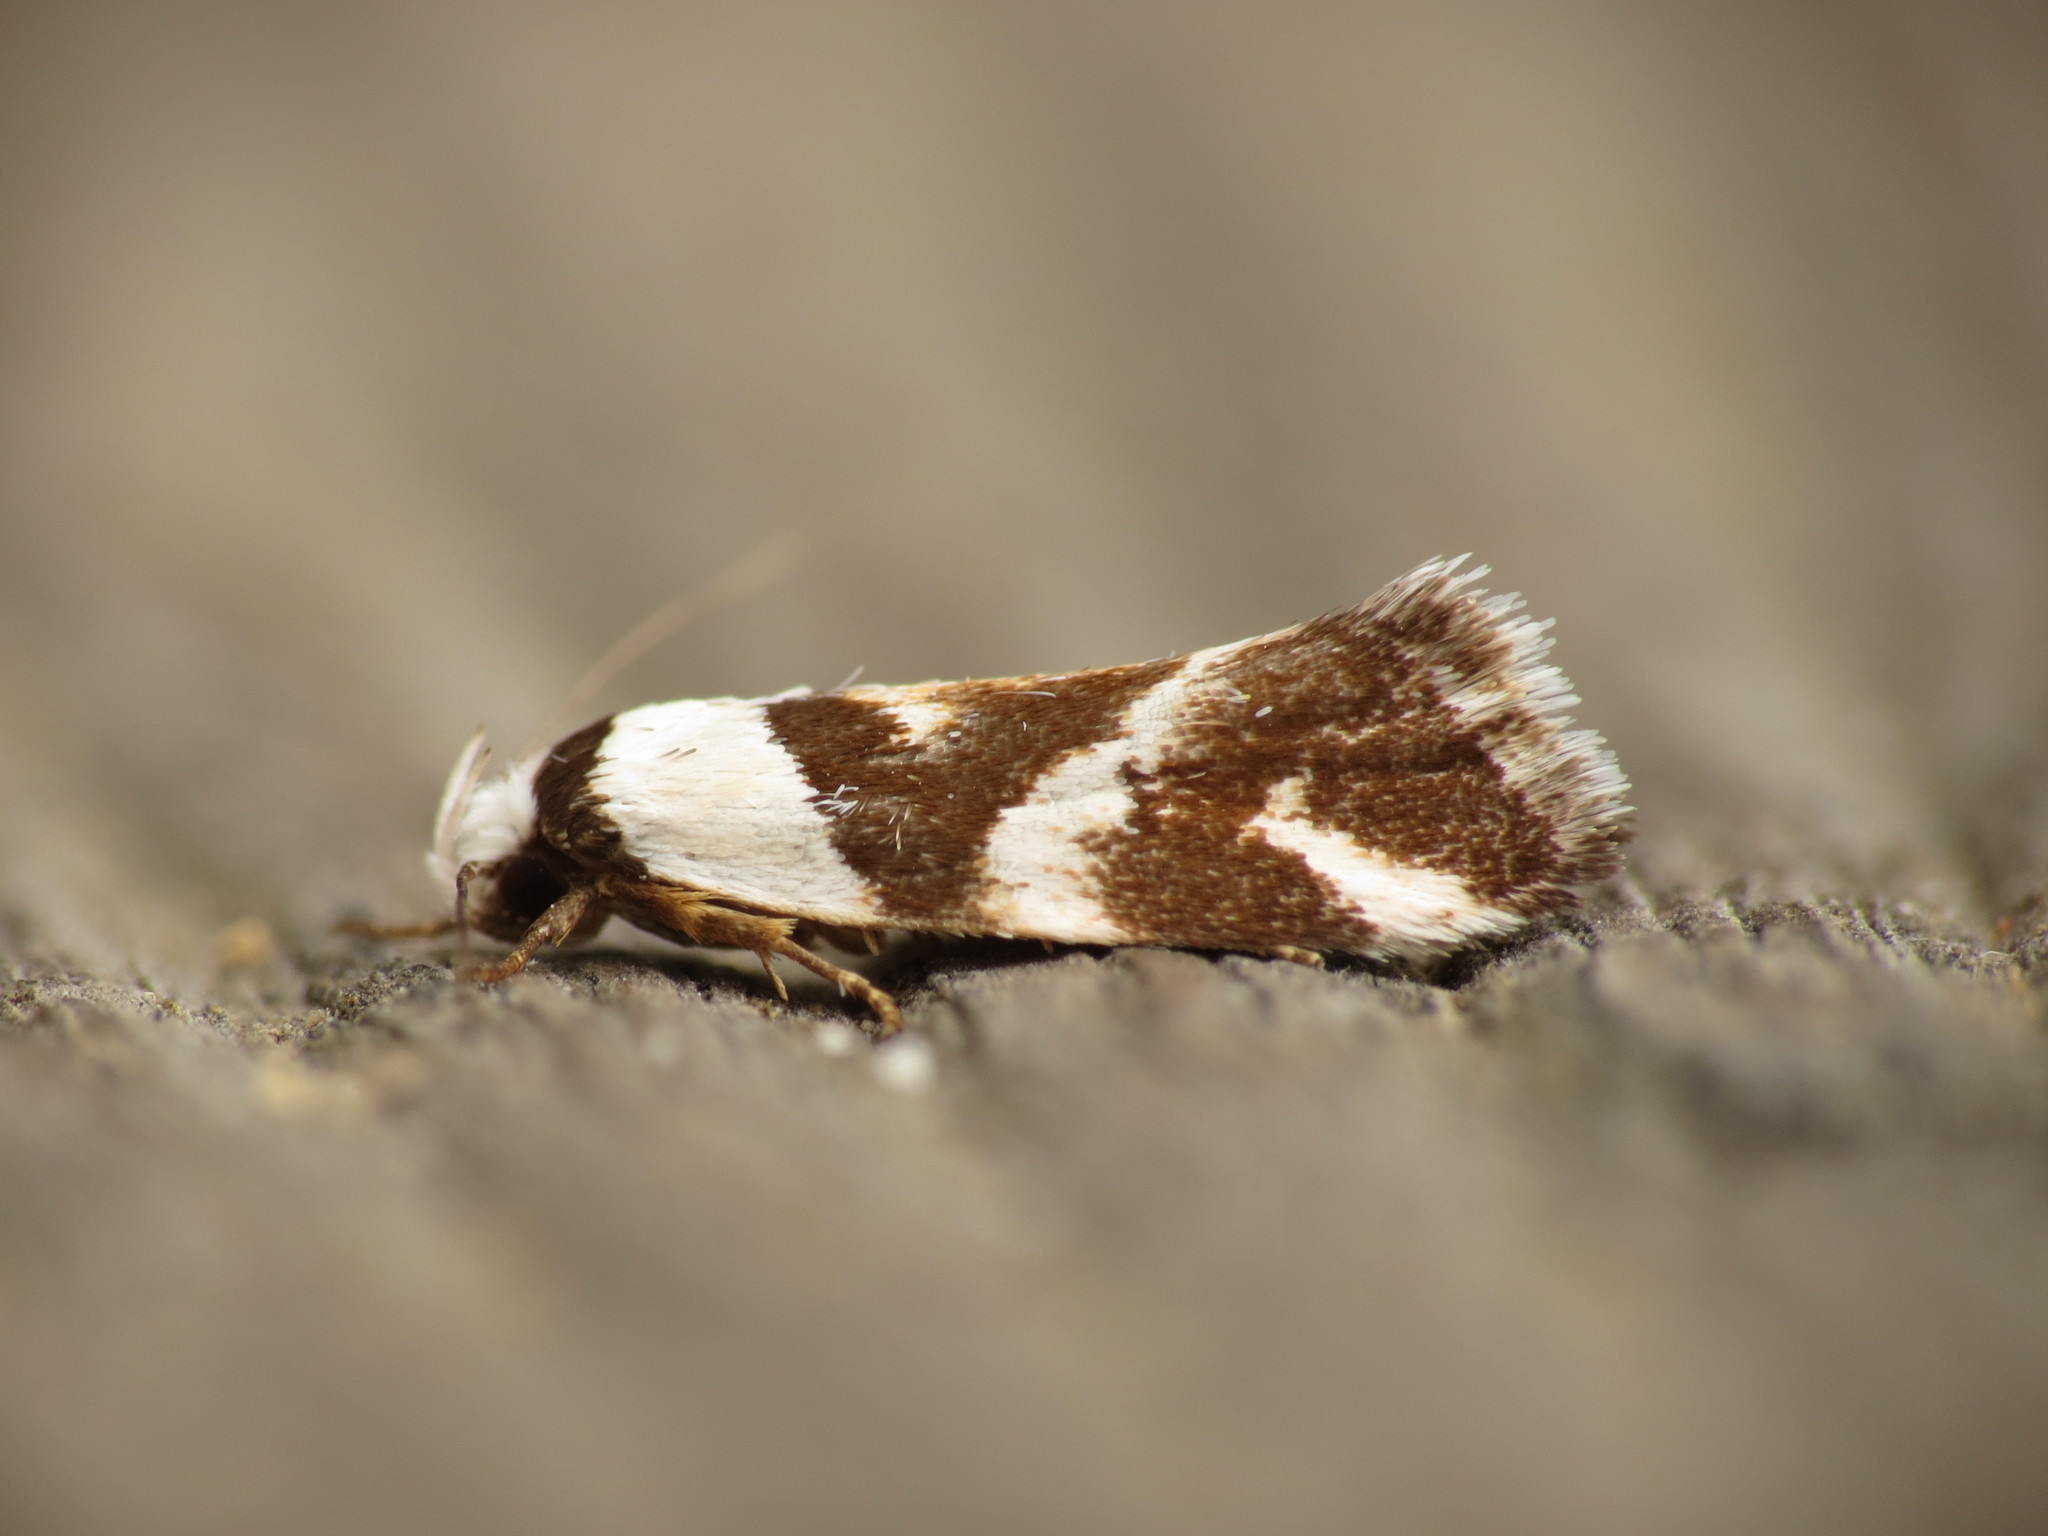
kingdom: Animalia
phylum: Arthropoda
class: Insecta
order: Lepidoptera
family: Oecophoridae
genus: Eremnotypa
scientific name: Eremnotypa steriphota
